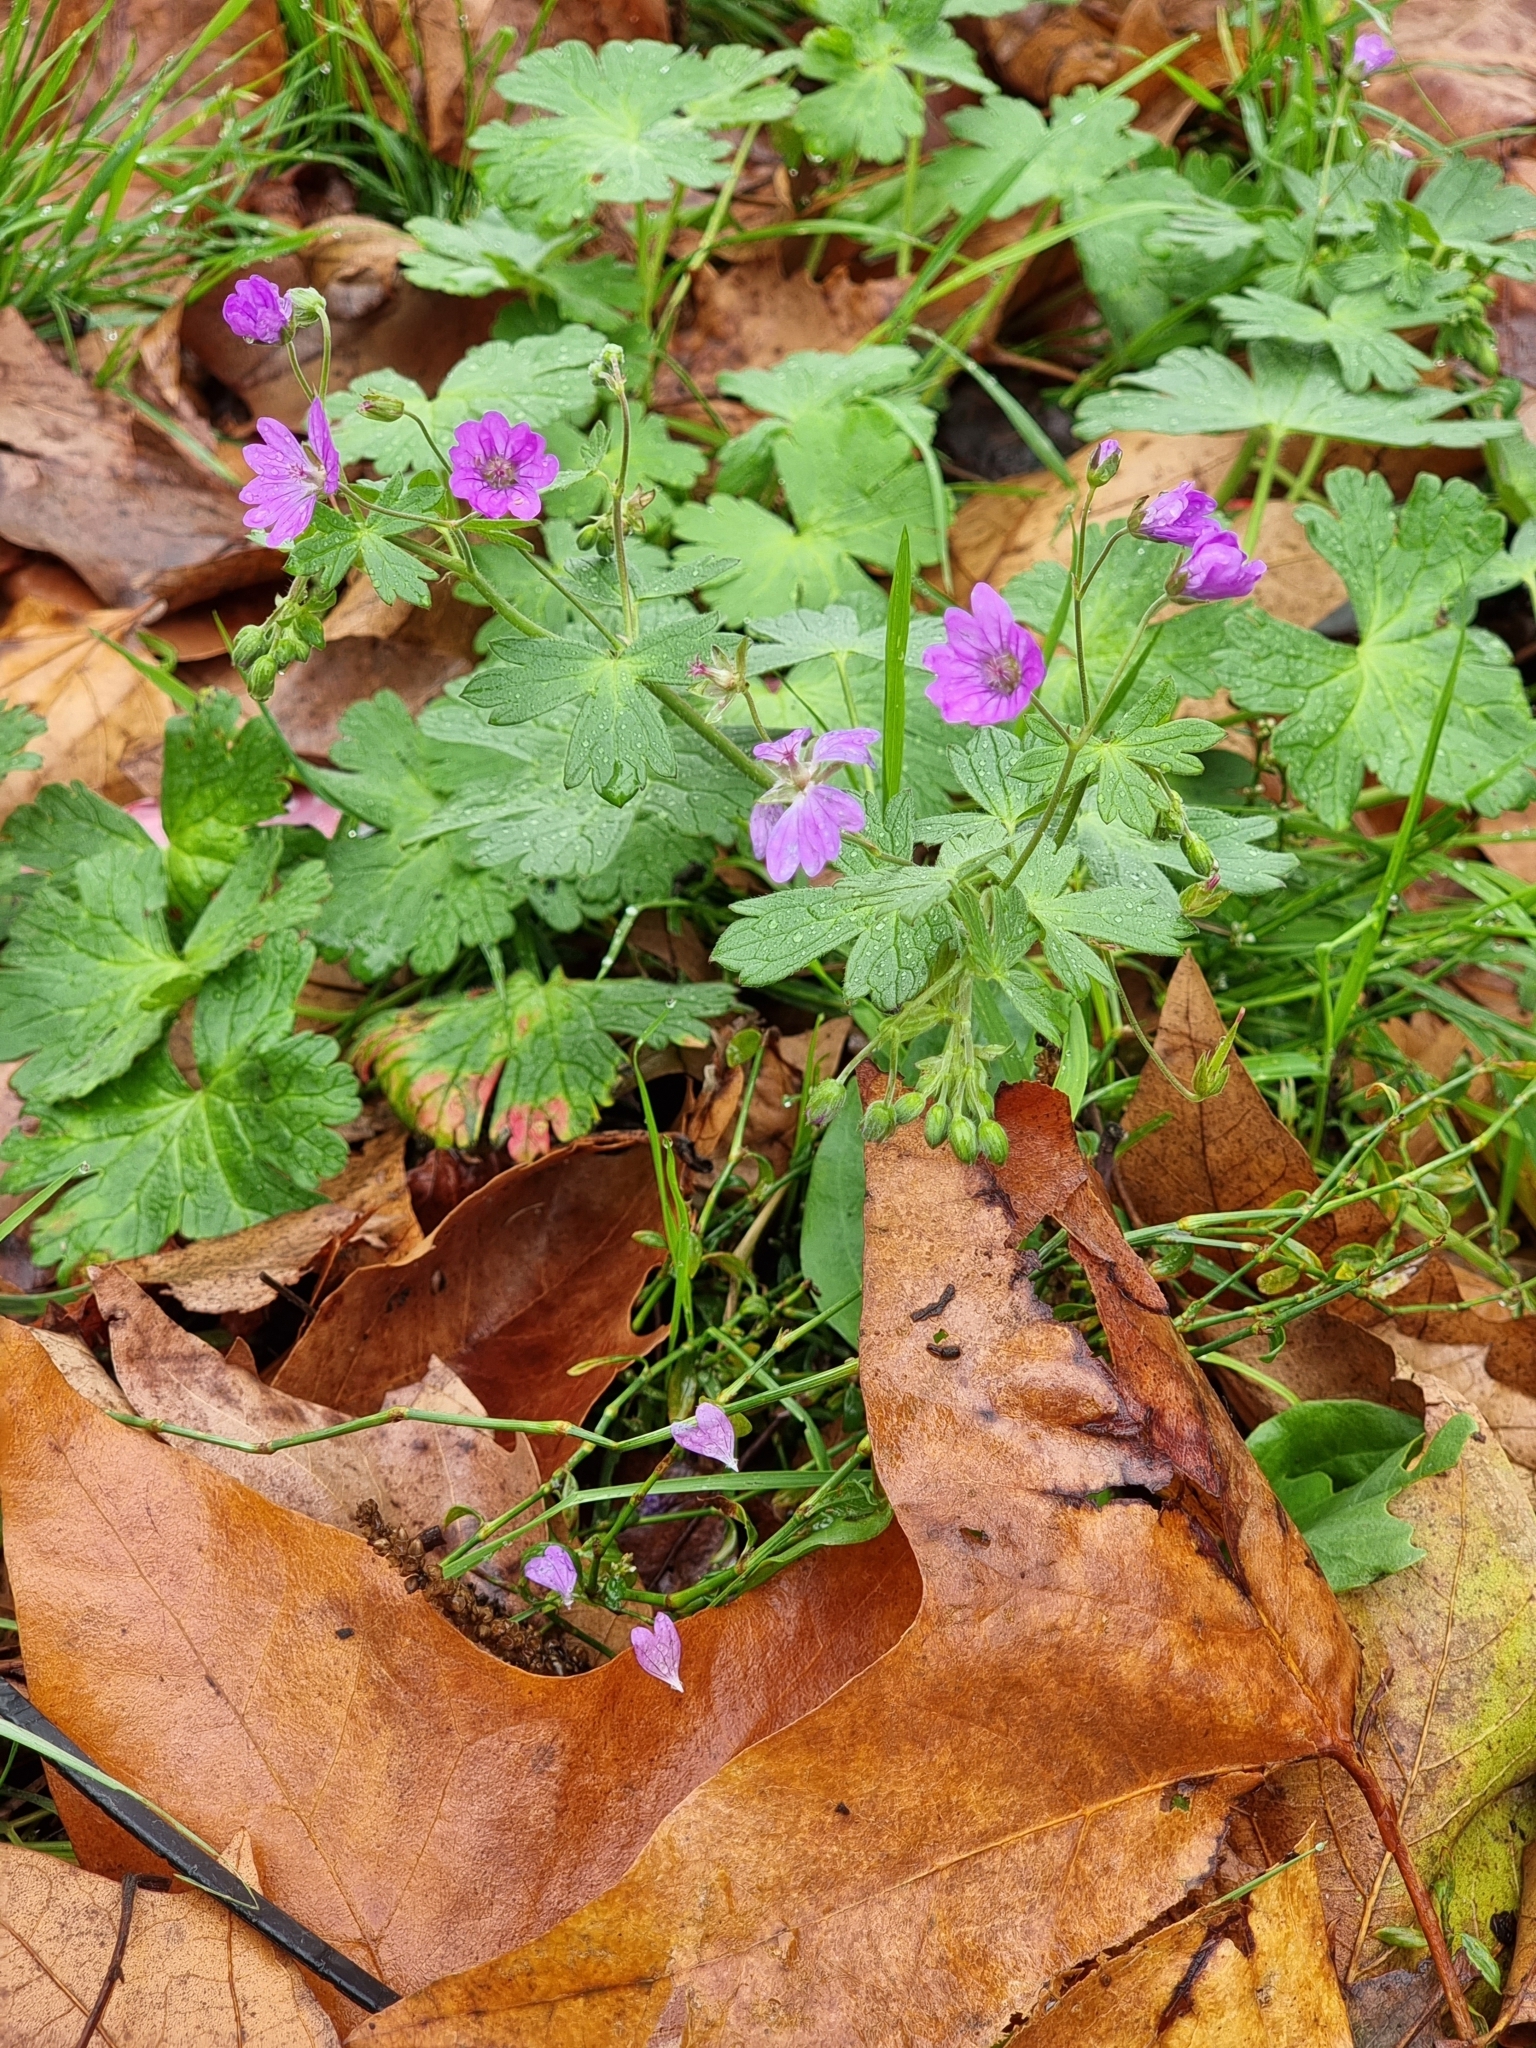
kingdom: Plantae
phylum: Tracheophyta
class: Magnoliopsida
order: Geraniales
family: Geraniaceae
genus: Geranium
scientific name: Geranium pyrenaicum
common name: Hedgerow crane's-bill
